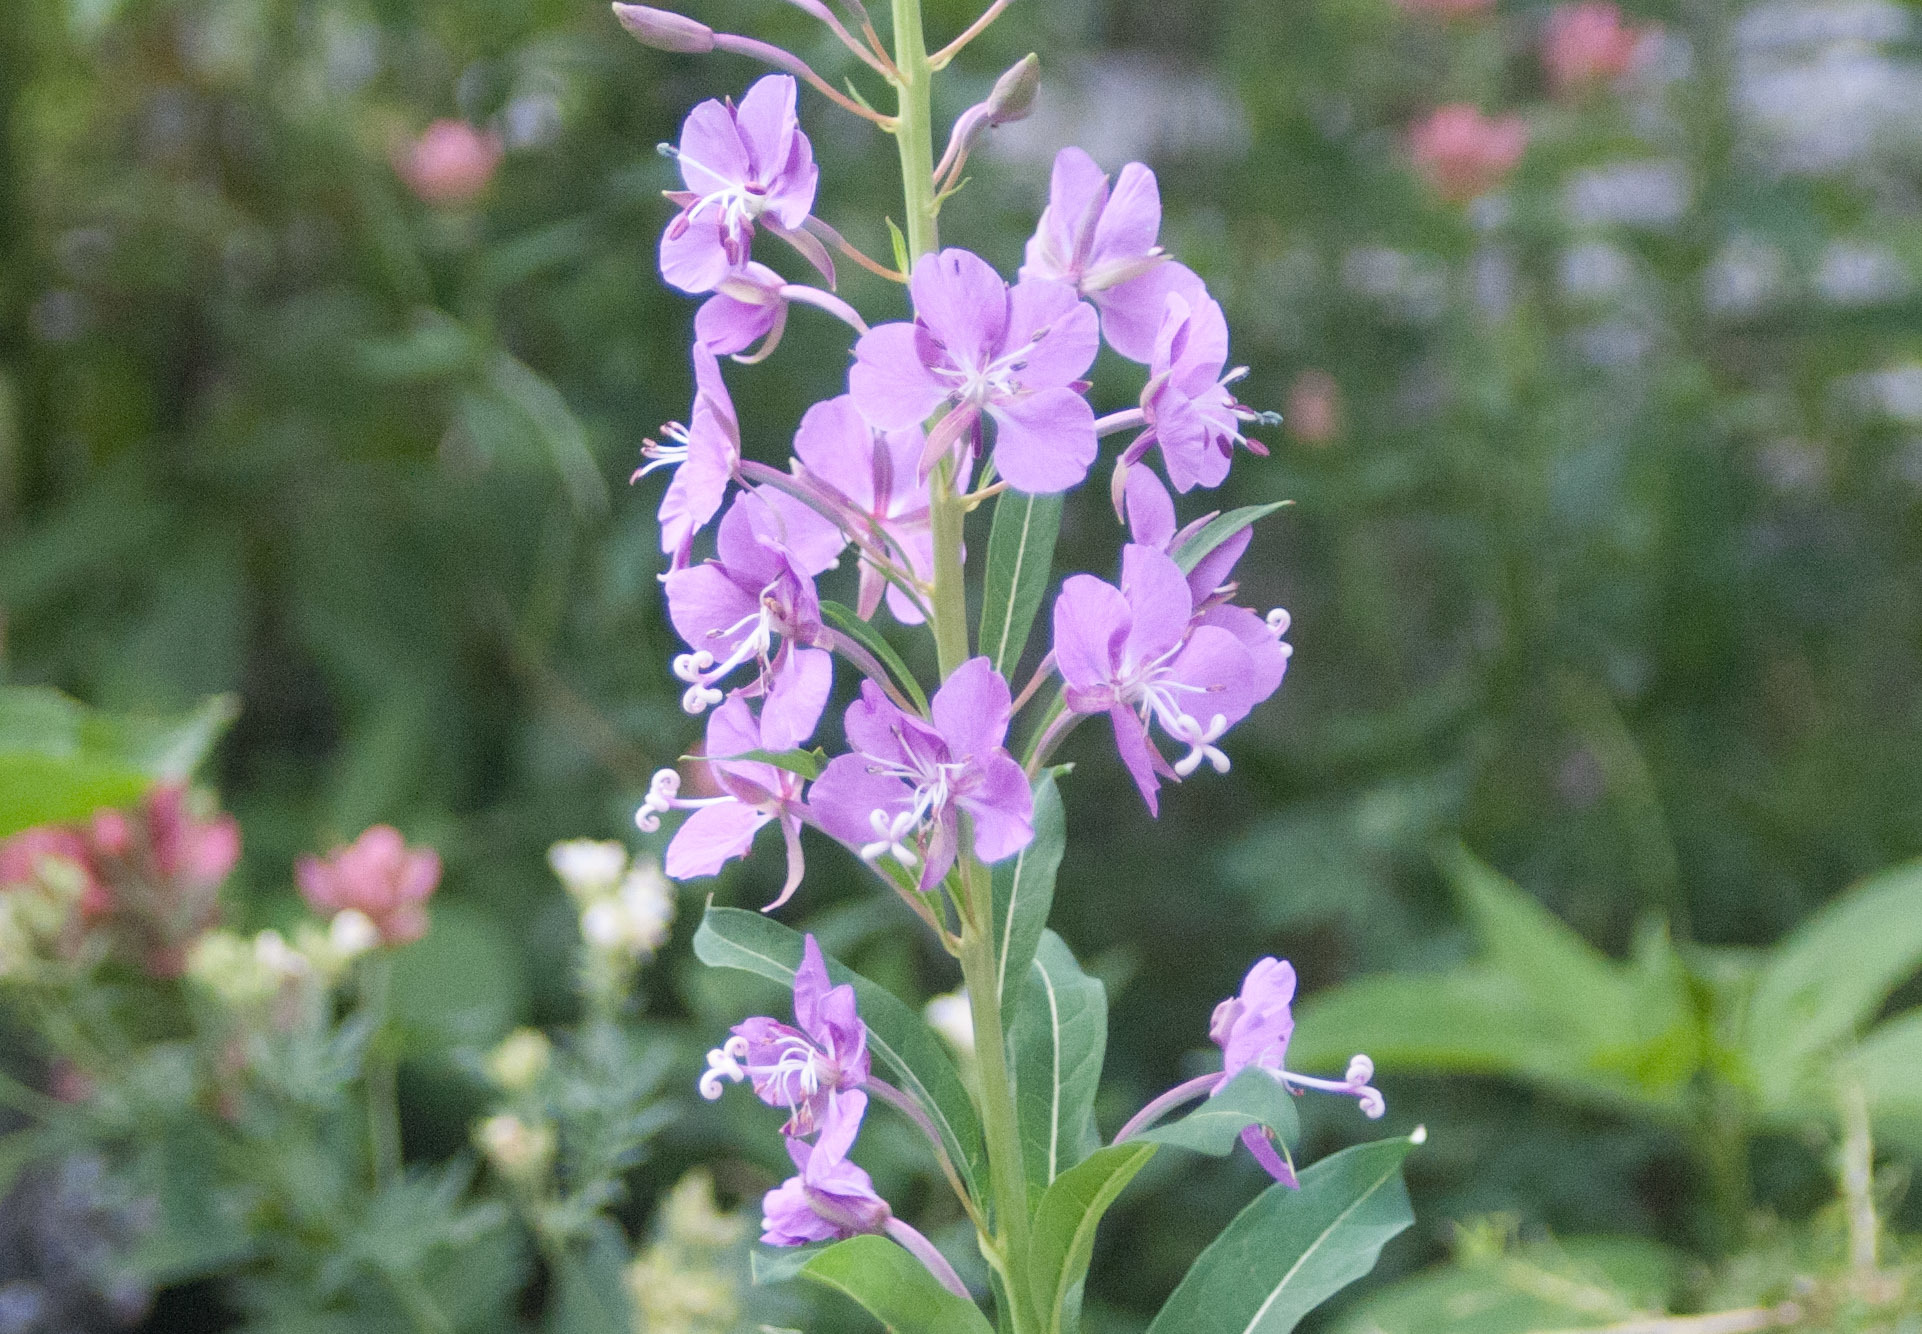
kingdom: Plantae
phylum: Tracheophyta
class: Magnoliopsida
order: Myrtales
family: Onagraceae
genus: Chamaenerion
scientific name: Chamaenerion angustifolium
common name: Fireweed
